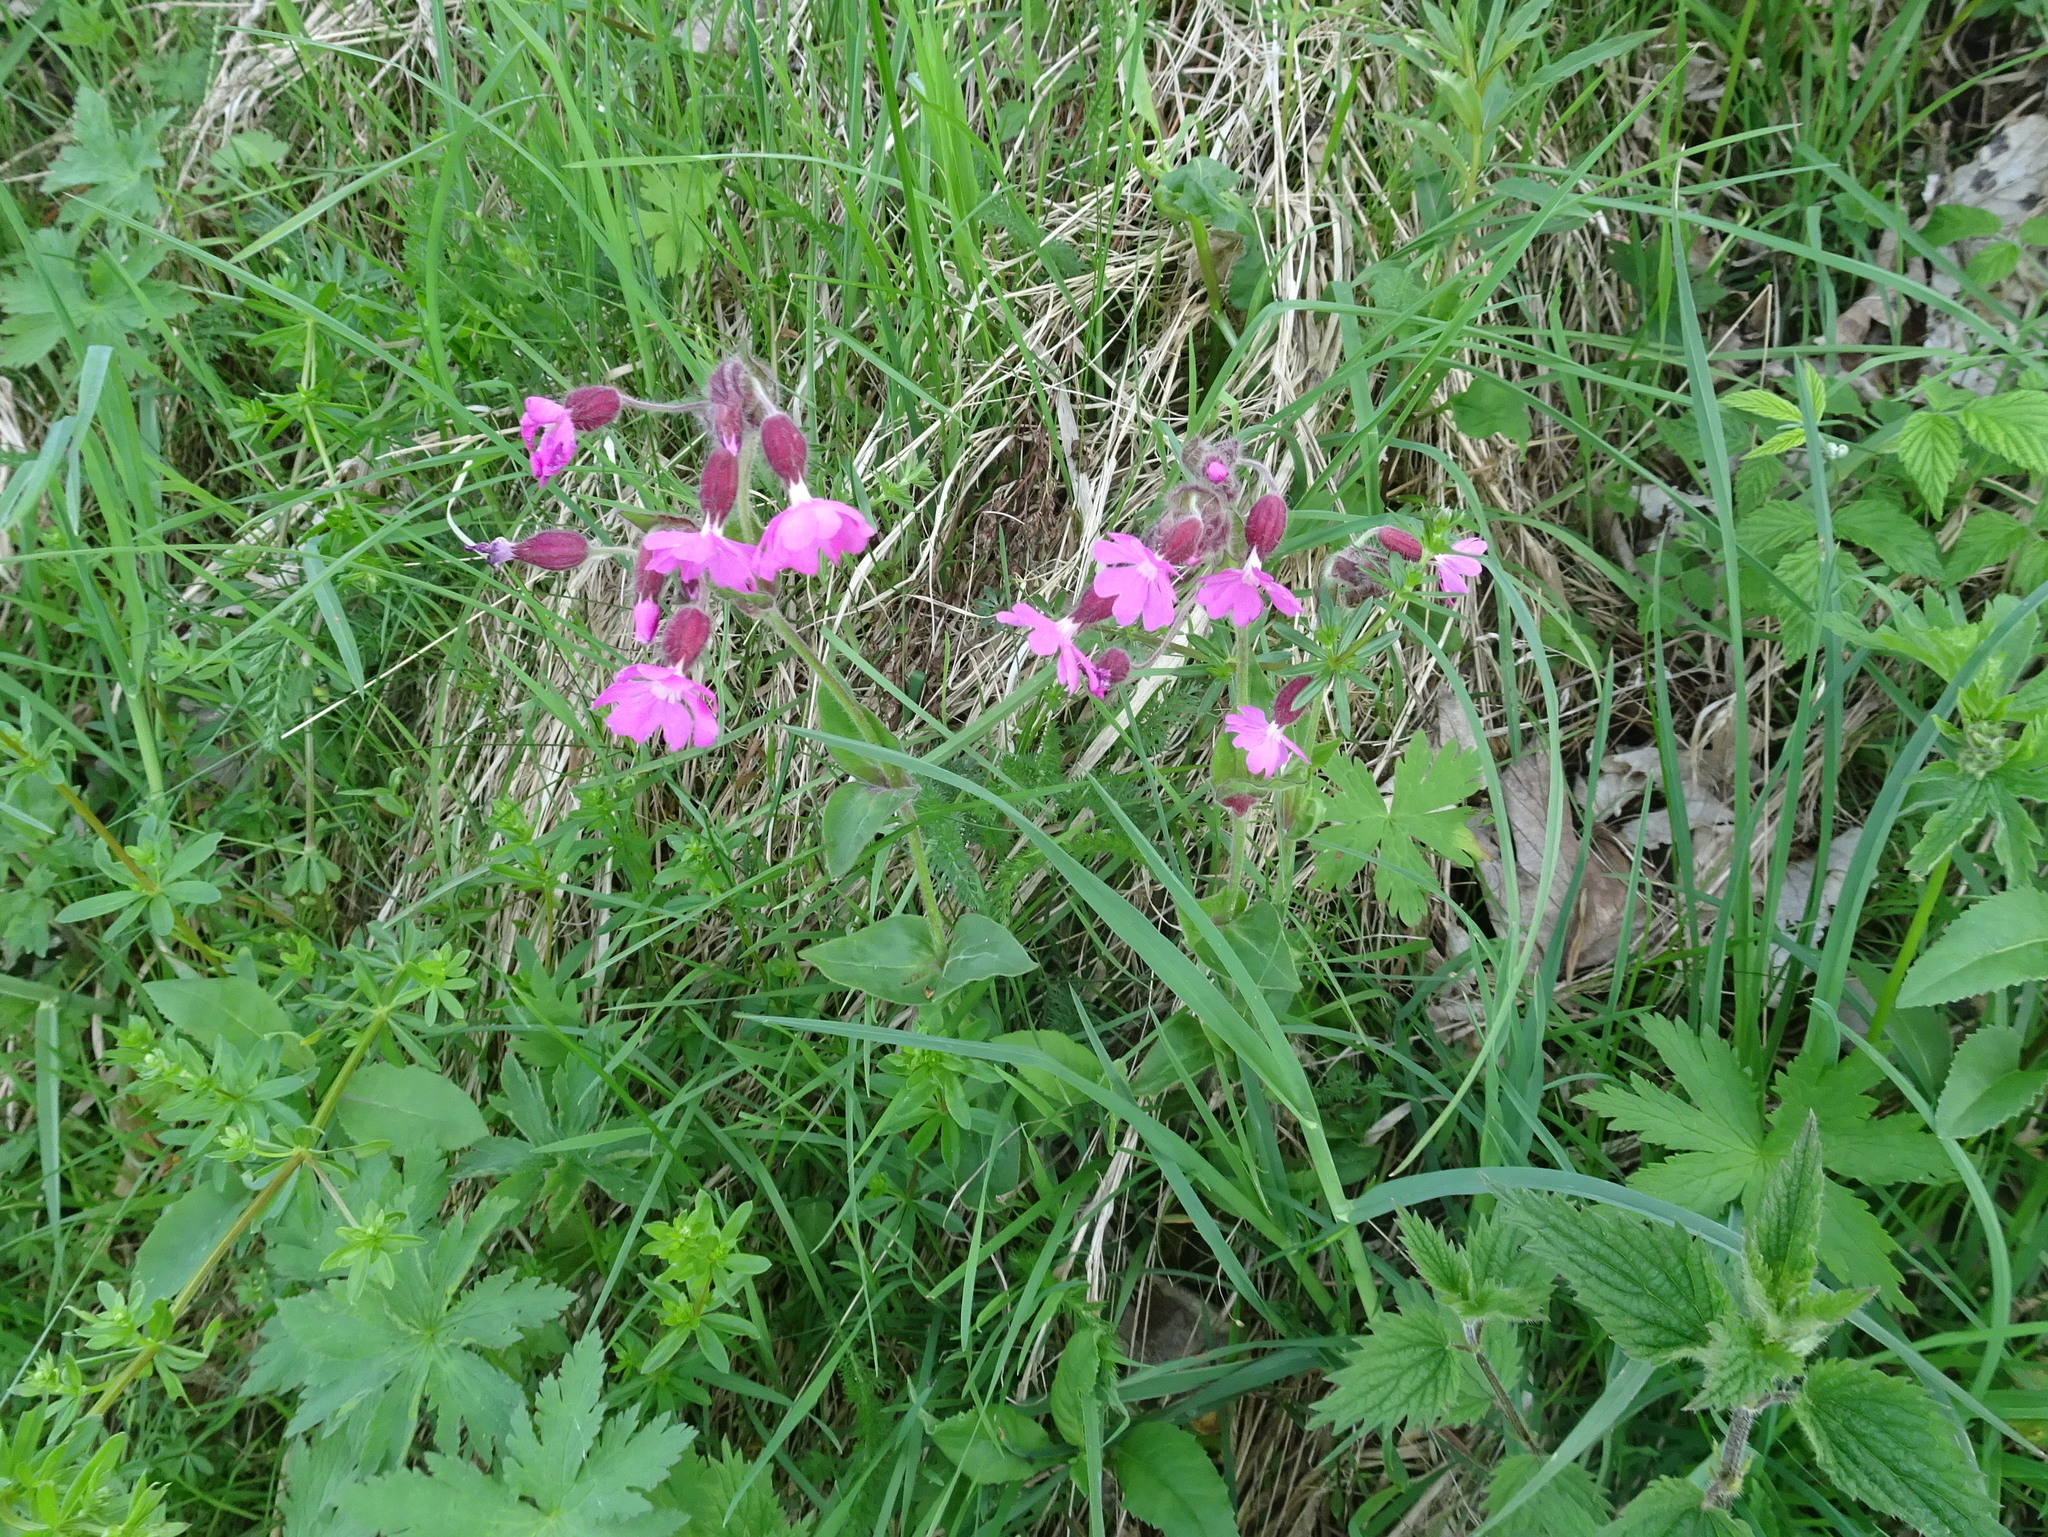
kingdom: Plantae
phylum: Tracheophyta
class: Magnoliopsida
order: Caryophyllales
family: Caryophyllaceae
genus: Silene
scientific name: Silene dioica
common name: Red campion
